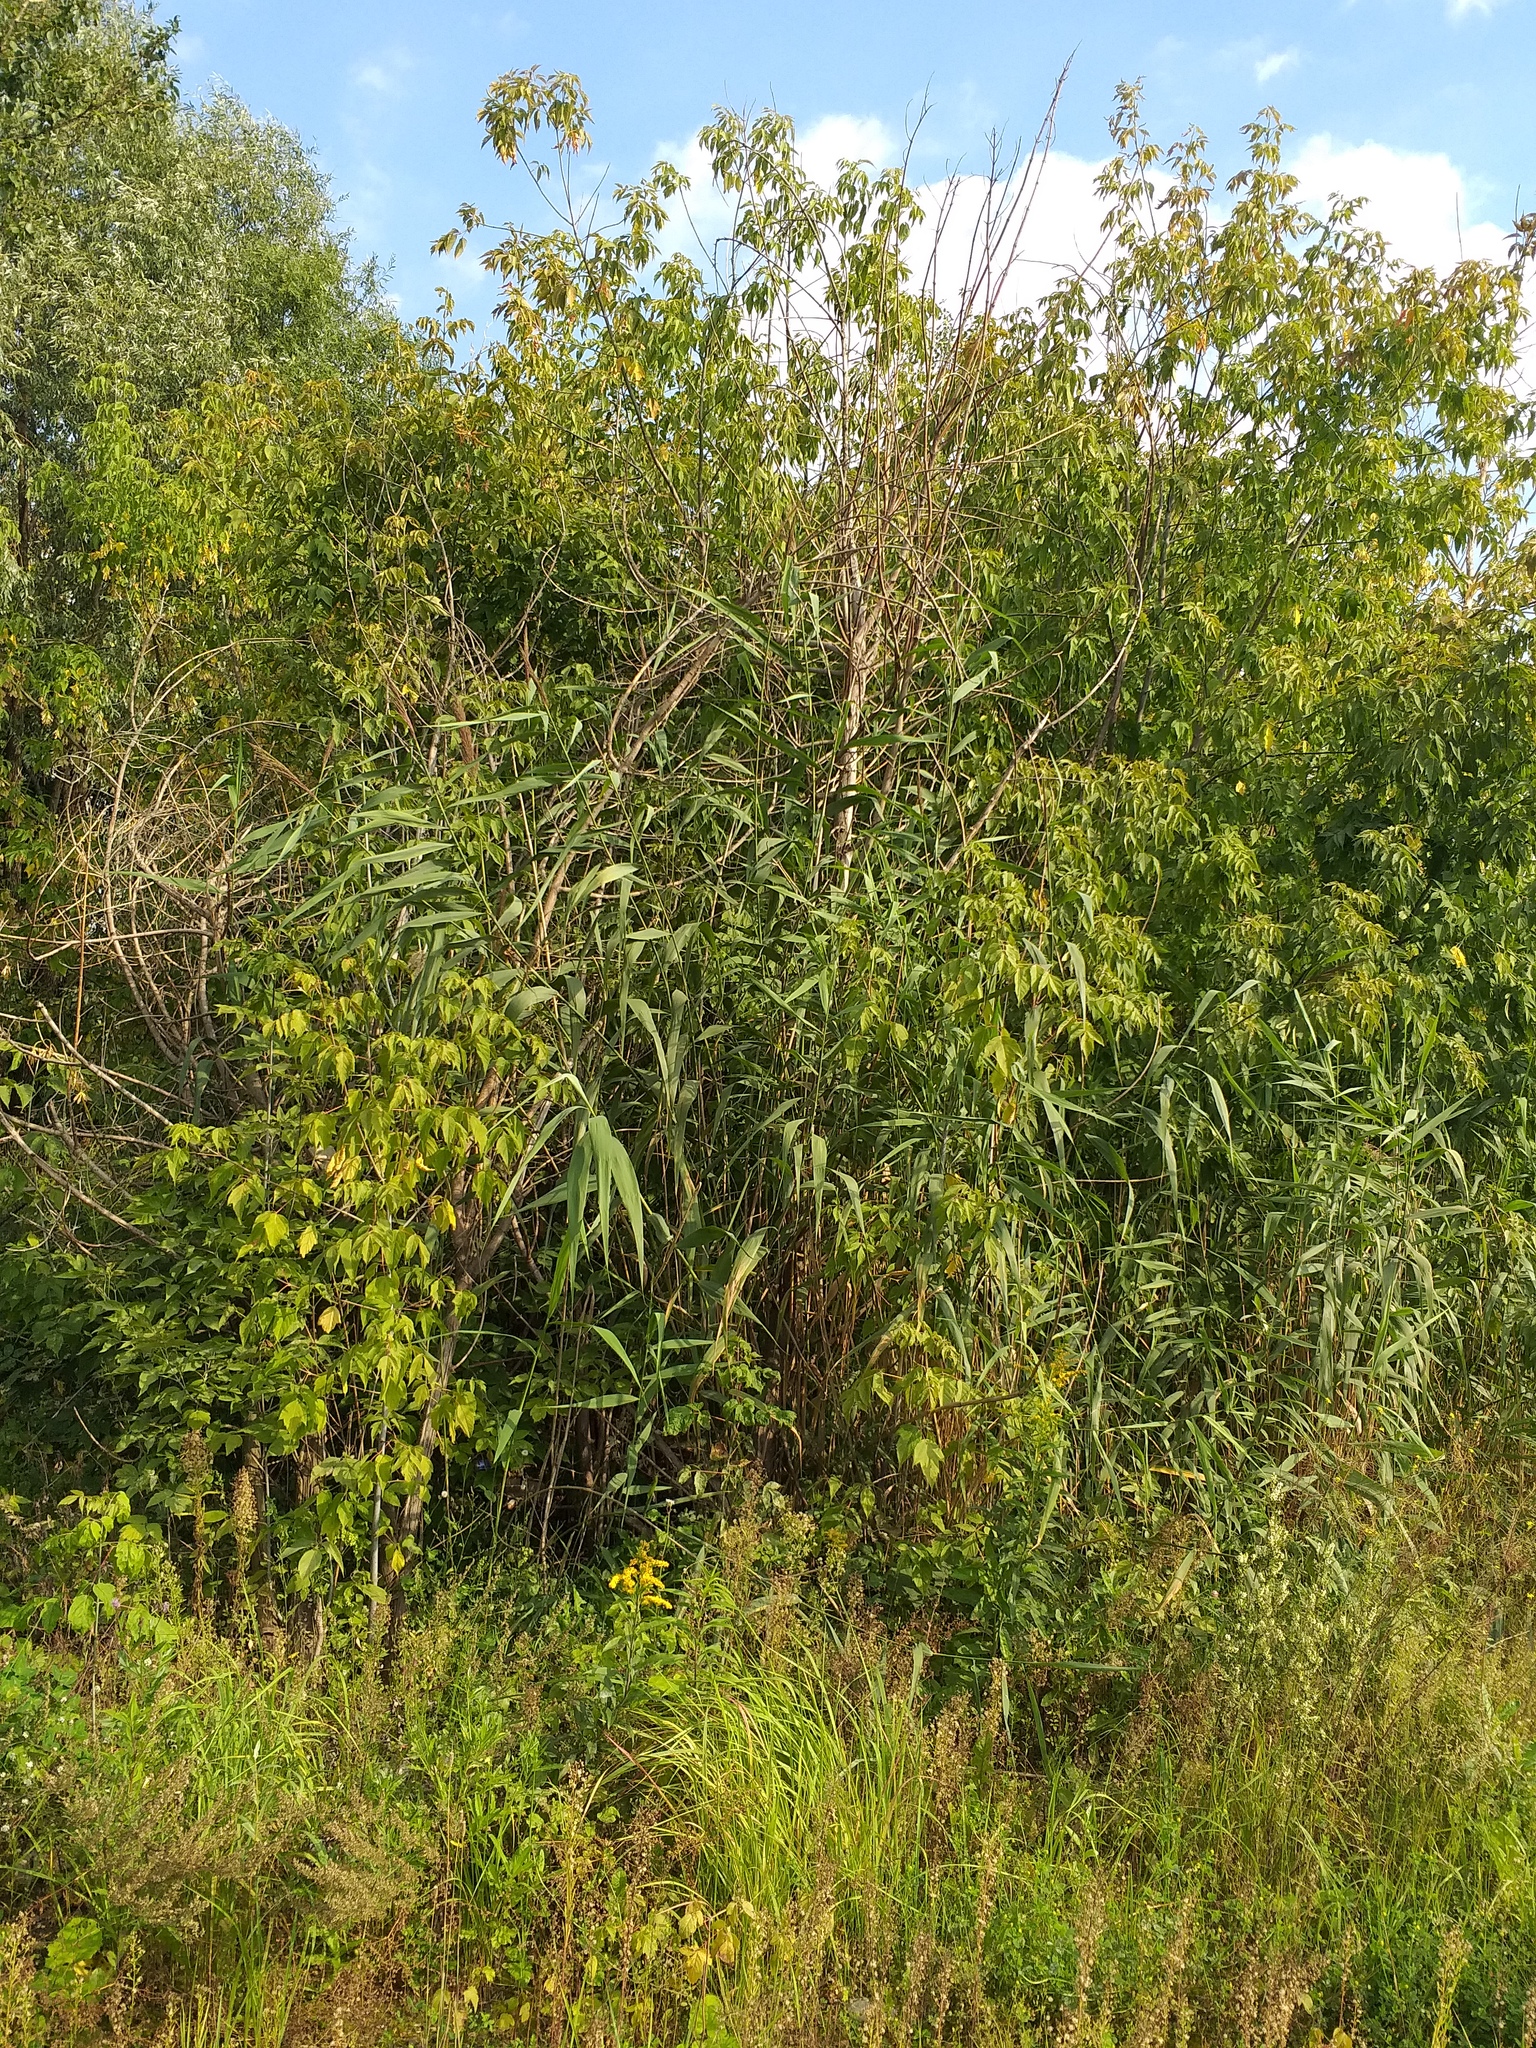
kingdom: Plantae
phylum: Tracheophyta
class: Liliopsida
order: Poales
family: Poaceae
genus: Phragmites
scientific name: Phragmites australis
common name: Common reed
